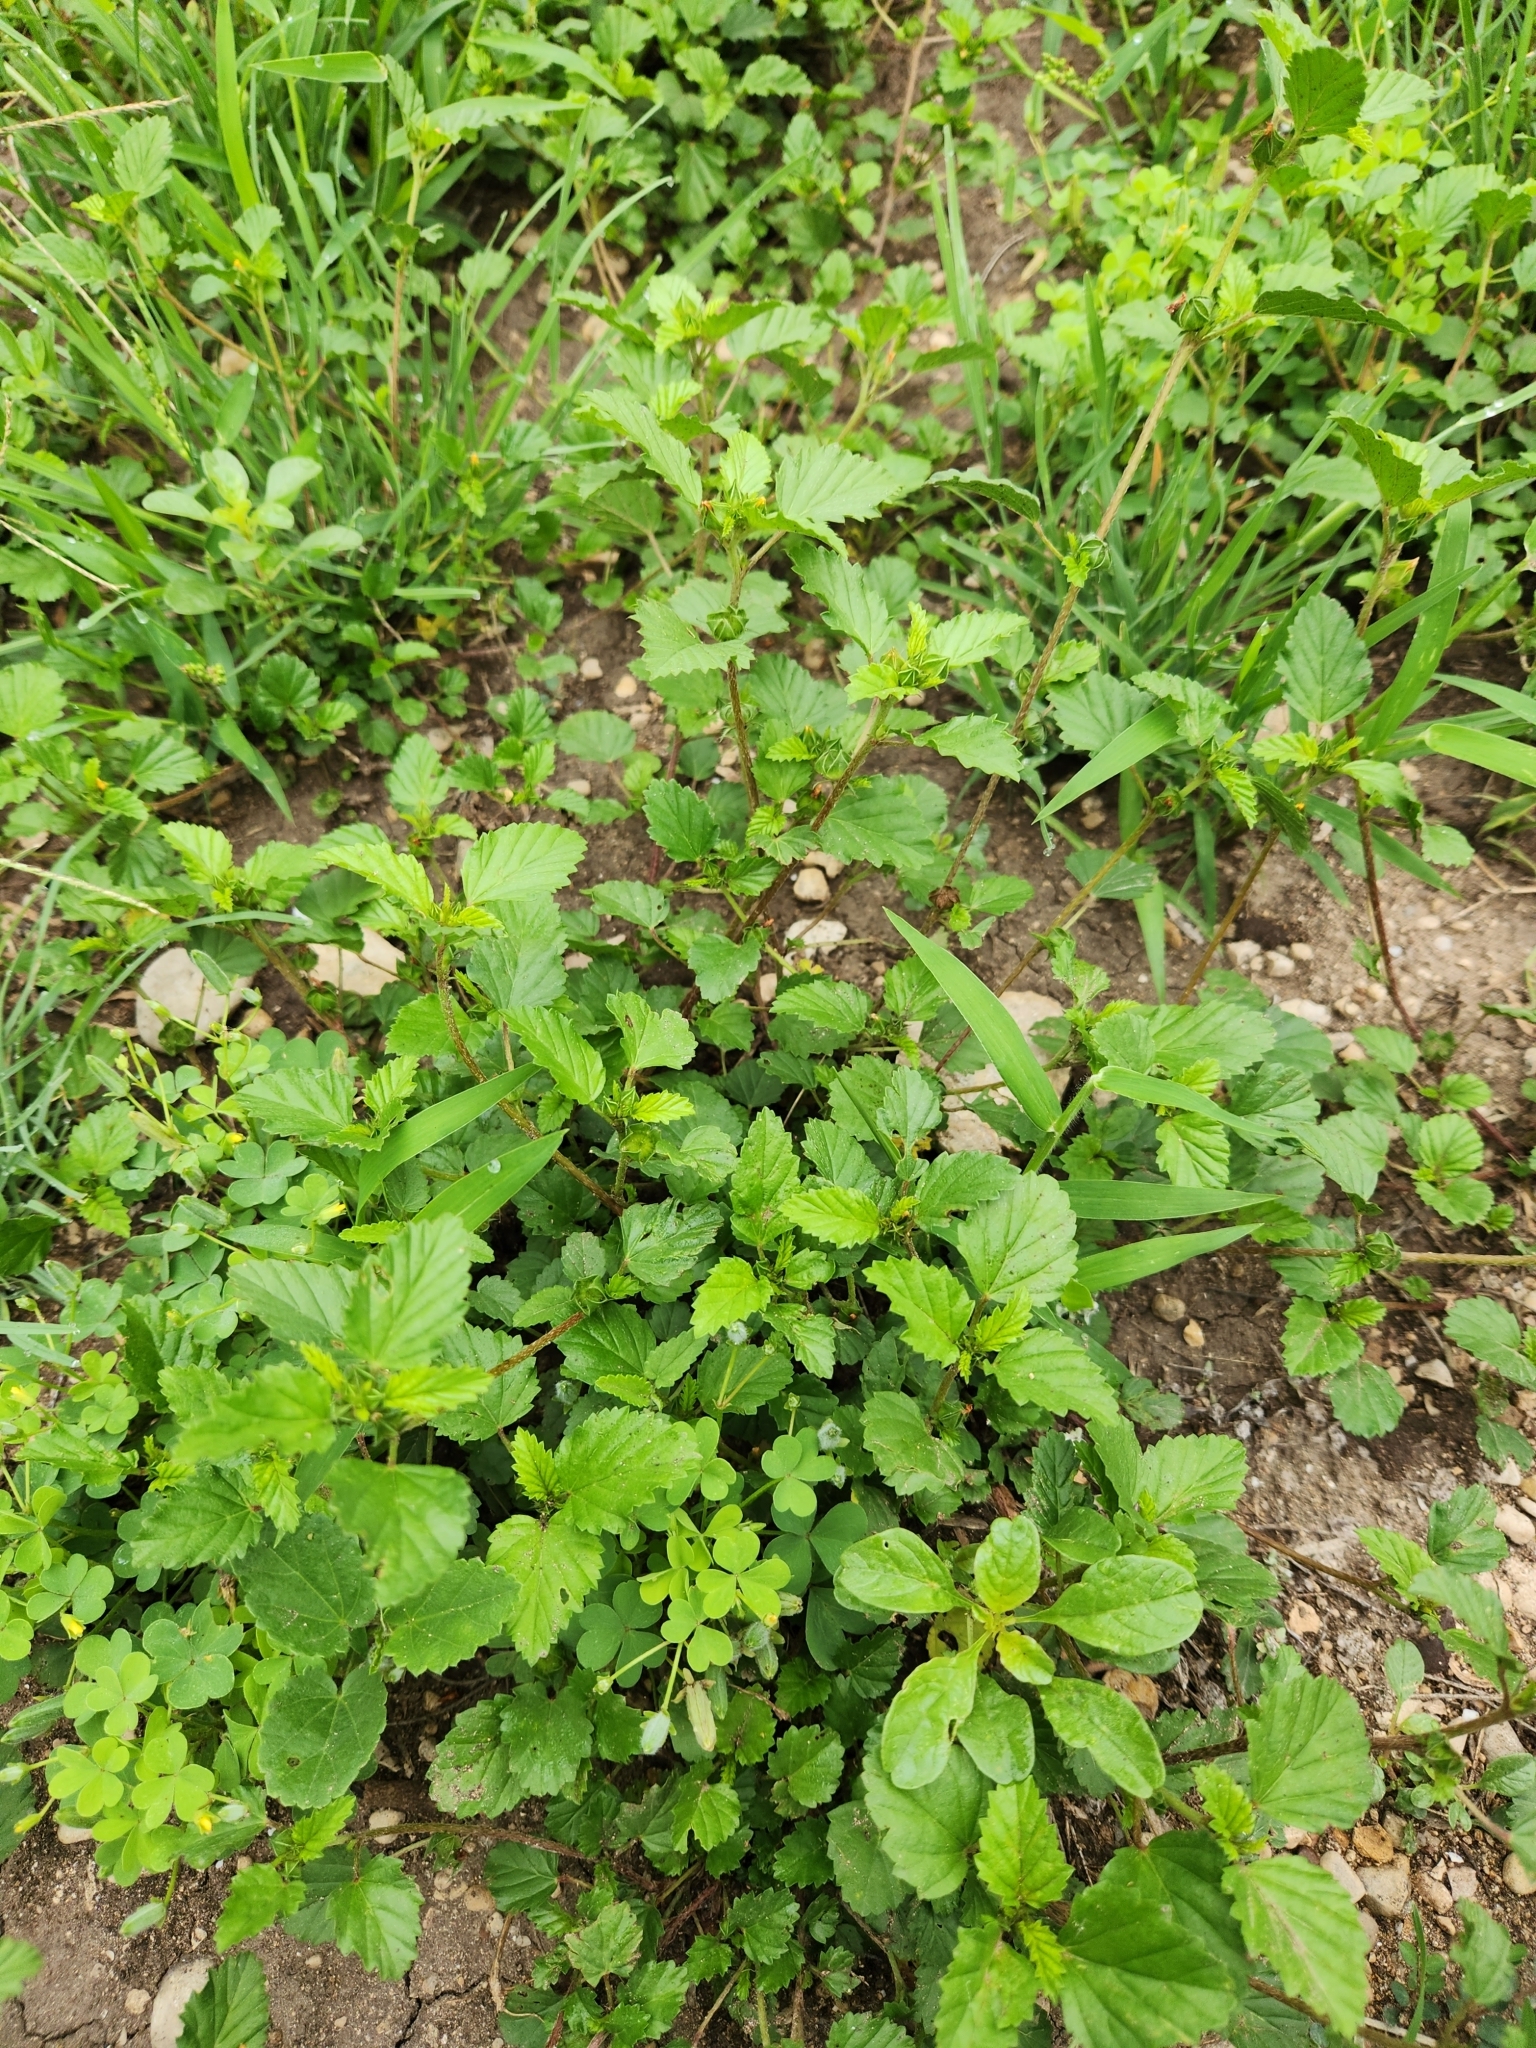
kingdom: Plantae
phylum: Tracheophyta
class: Magnoliopsida
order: Malvales
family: Malvaceae
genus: Malvastrum
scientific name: Malvastrum coromandelianum
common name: Threelobe false mallow
